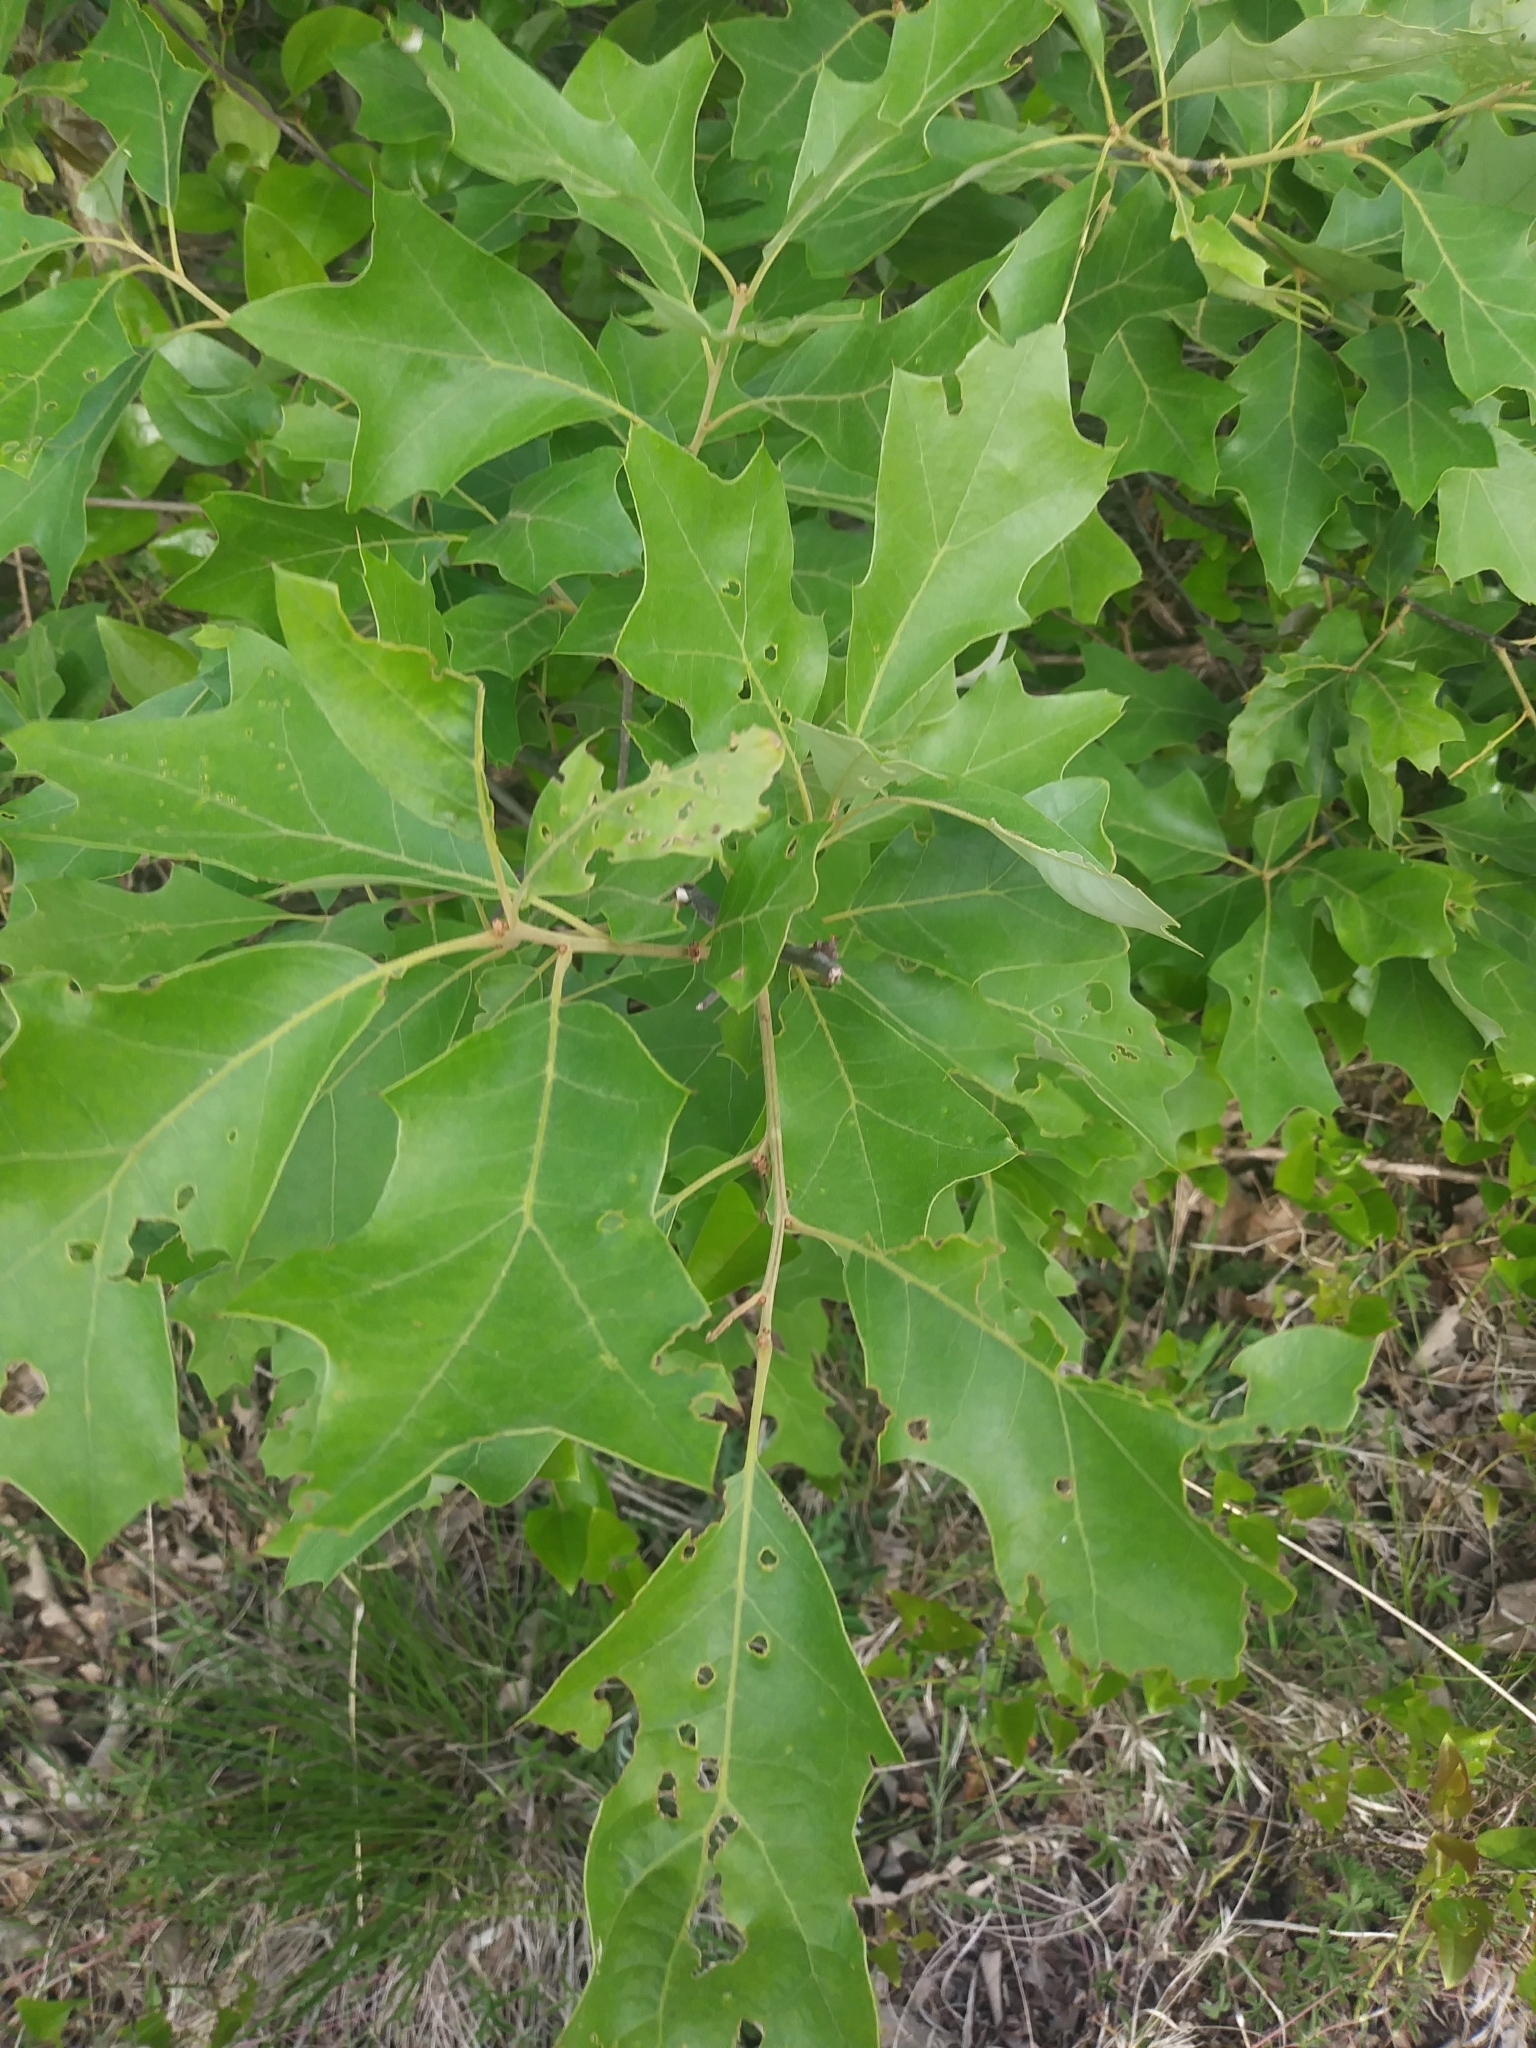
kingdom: Plantae
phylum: Tracheophyta
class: Magnoliopsida
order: Fagales
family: Fagaceae
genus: Quercus
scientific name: Quercus ilicifolia
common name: Bear oak
